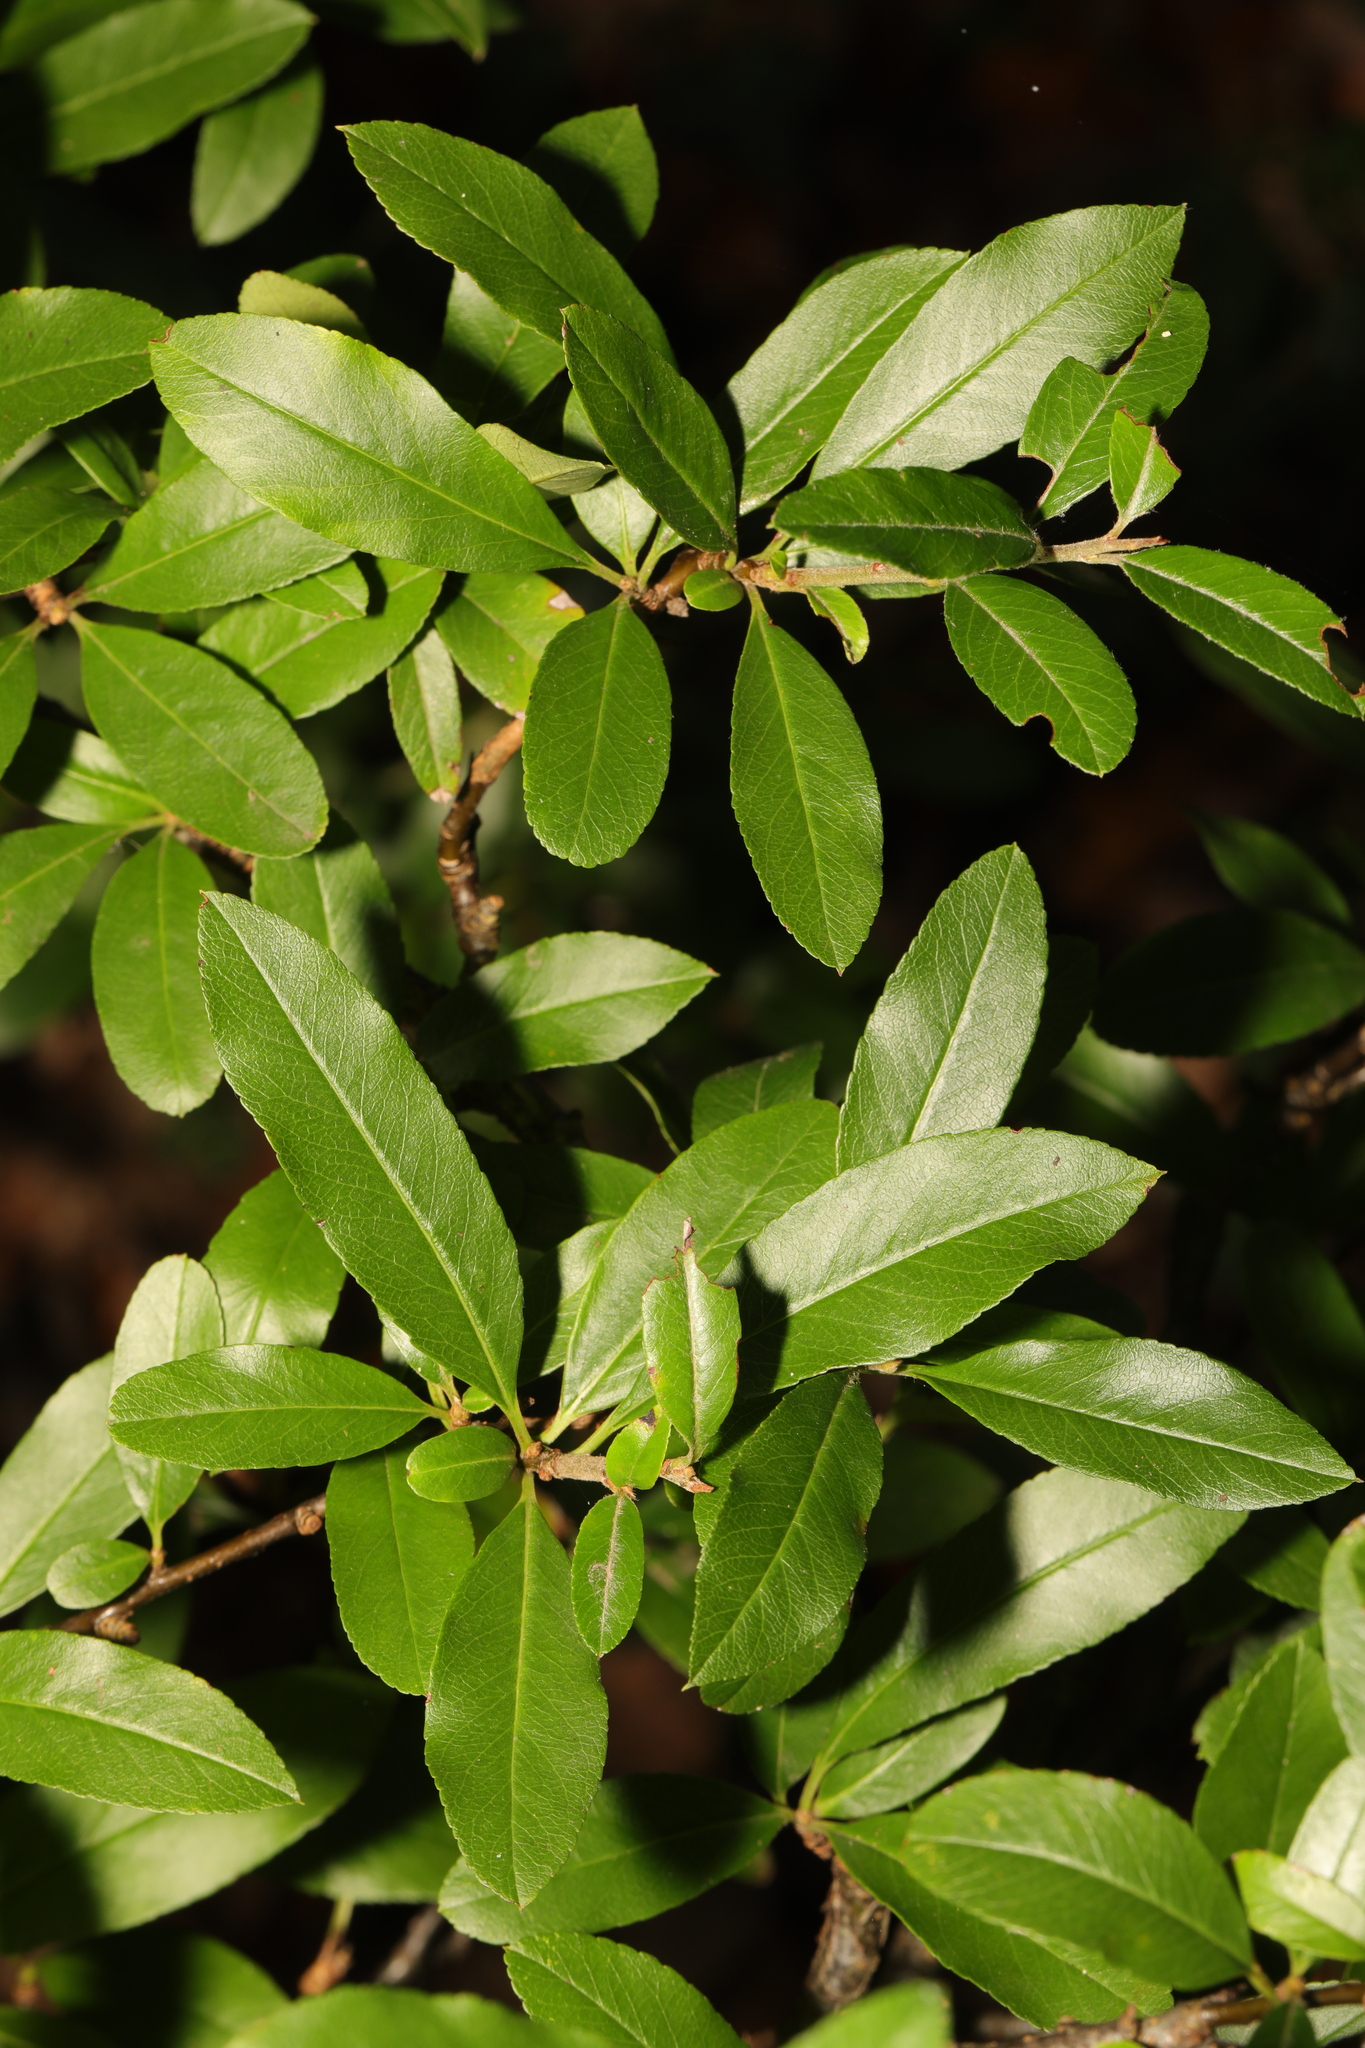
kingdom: Plantae
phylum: Tracheophyta
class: Magnoliopsida
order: Rosales
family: Rosaceae
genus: Pyracantha
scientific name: Pyracantha coccinea
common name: Firethorn
